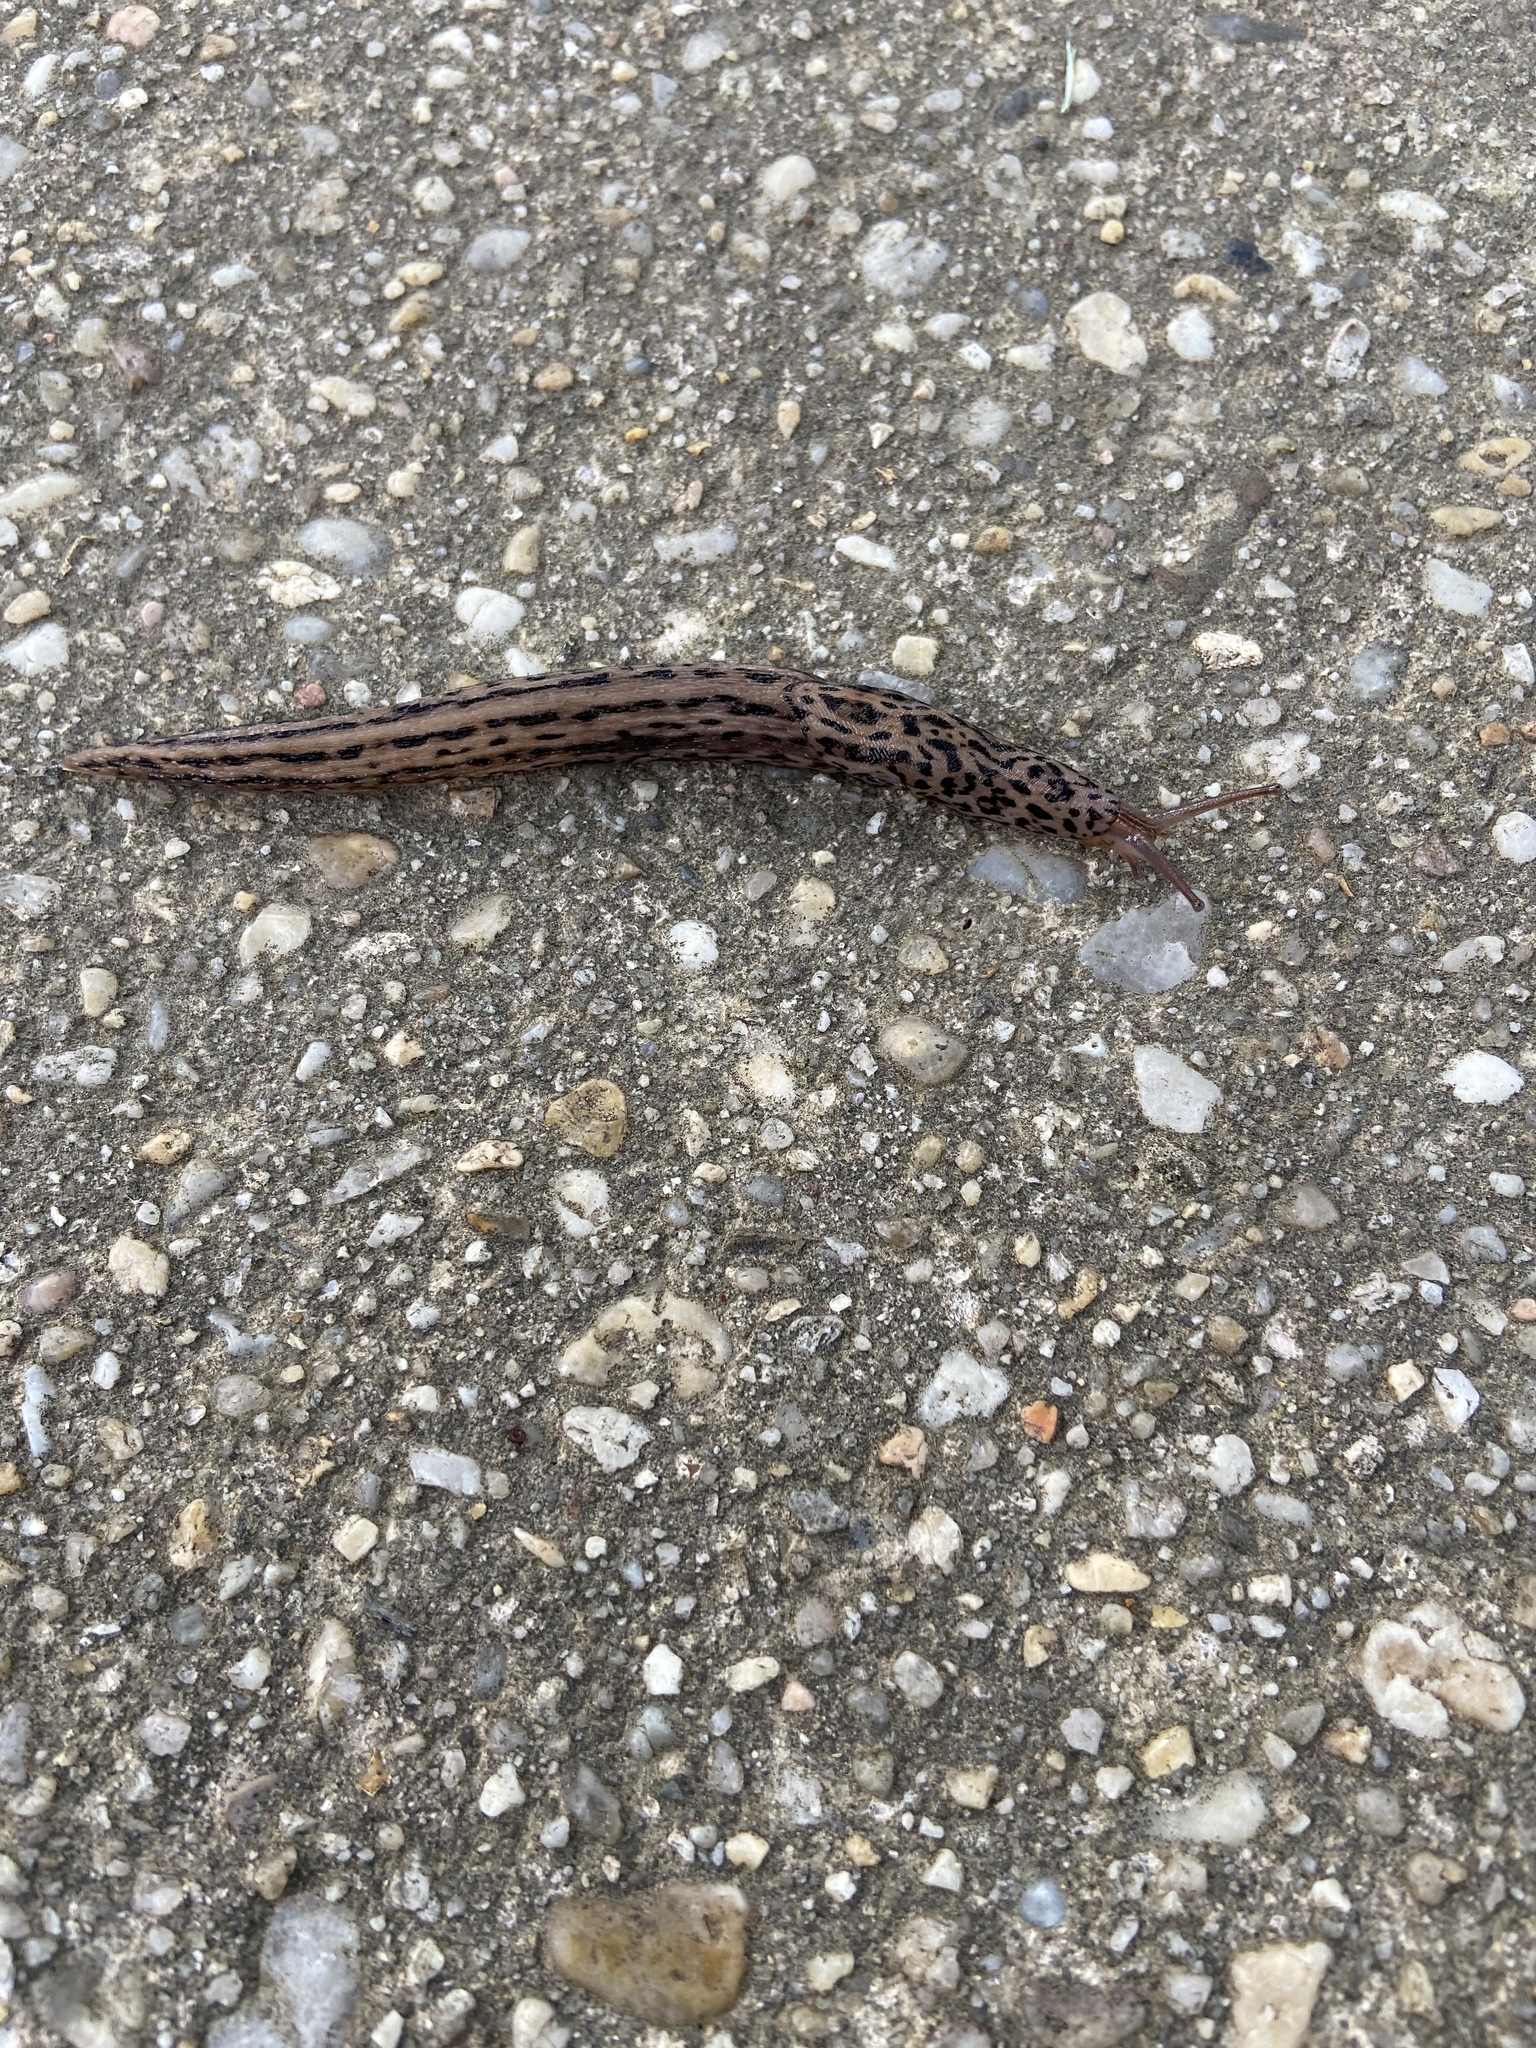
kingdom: Animalia
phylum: Mollusca
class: Gastropoda
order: Stylommatophora
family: Limacidae
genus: Limax
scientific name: Limax maximus
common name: Great grey slug
